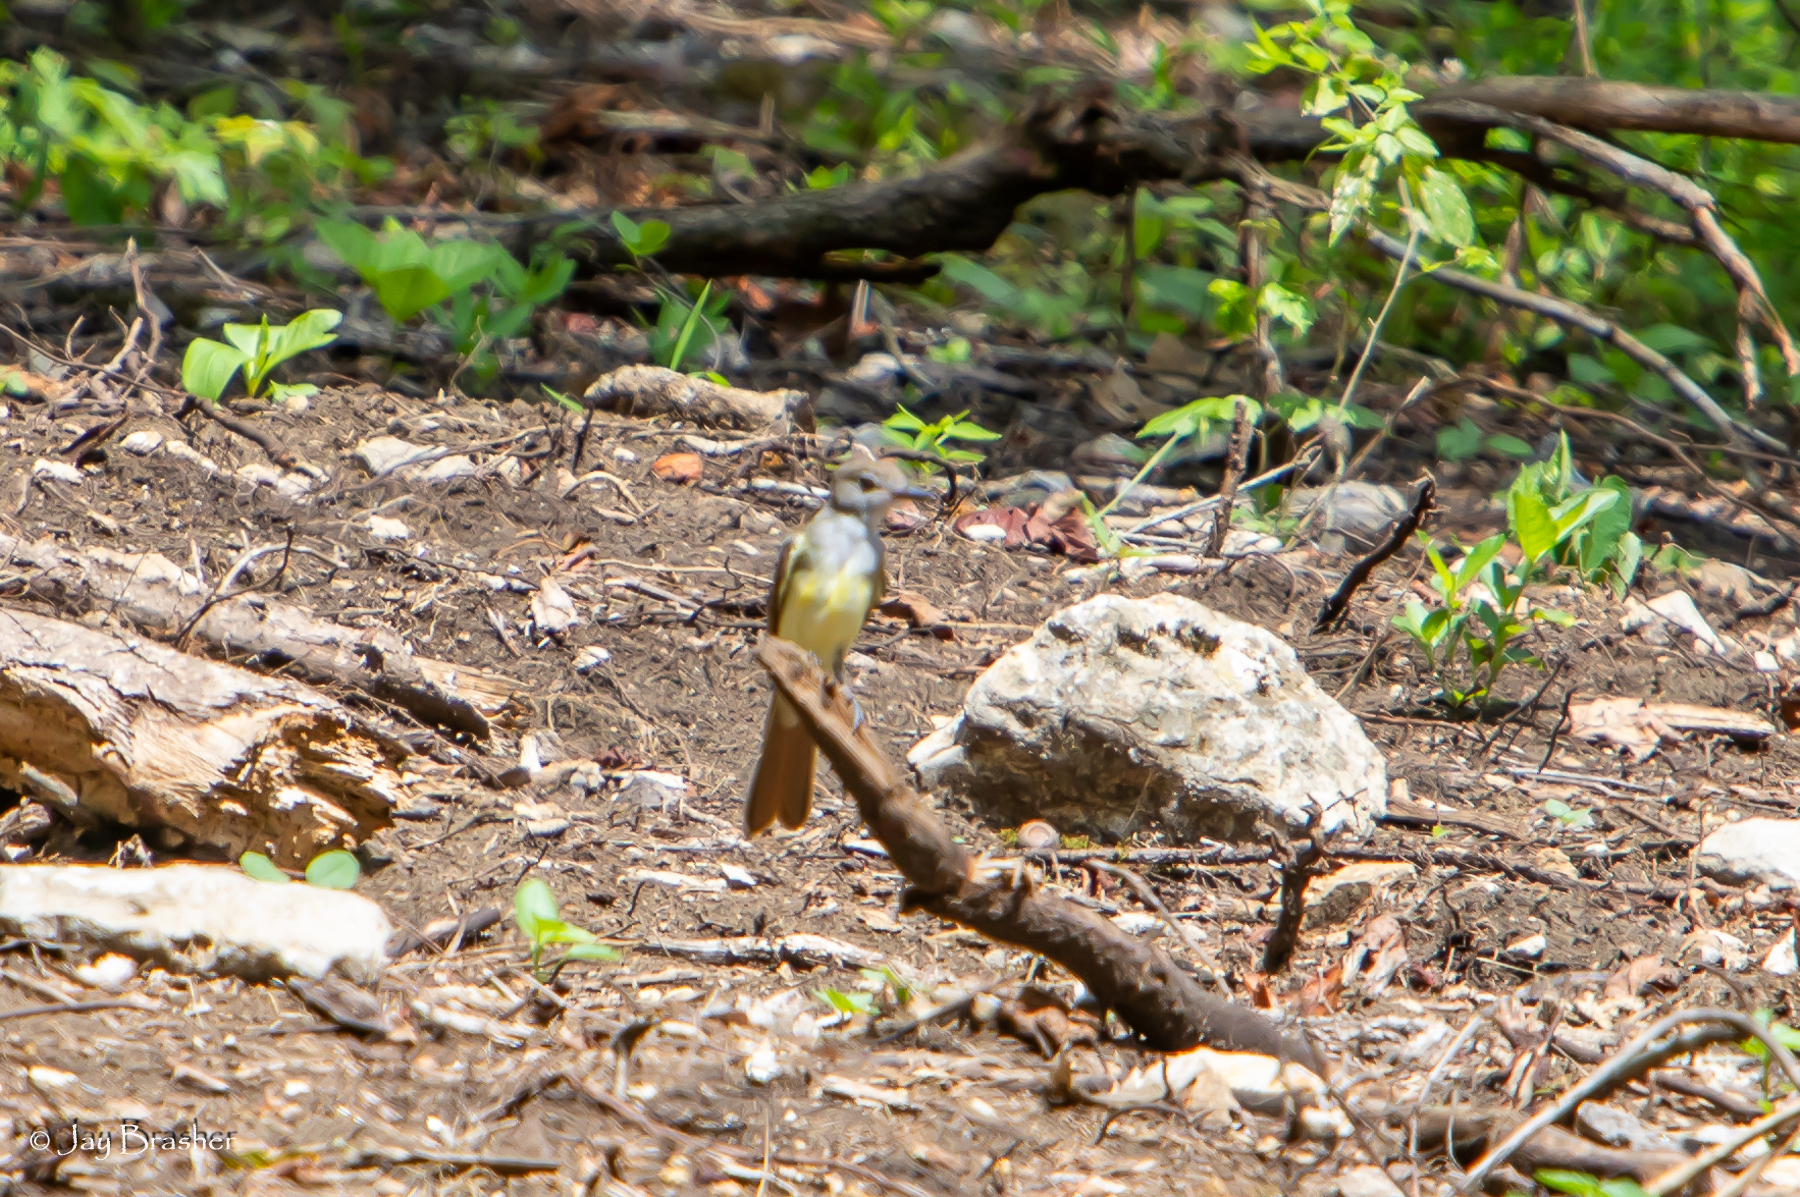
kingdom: Animalia
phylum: Chordata
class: Aves
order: Passeriformes
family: Tyrannidae
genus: Myiarchus
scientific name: Myiarchus crinitus
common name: Great crested flycatcher
